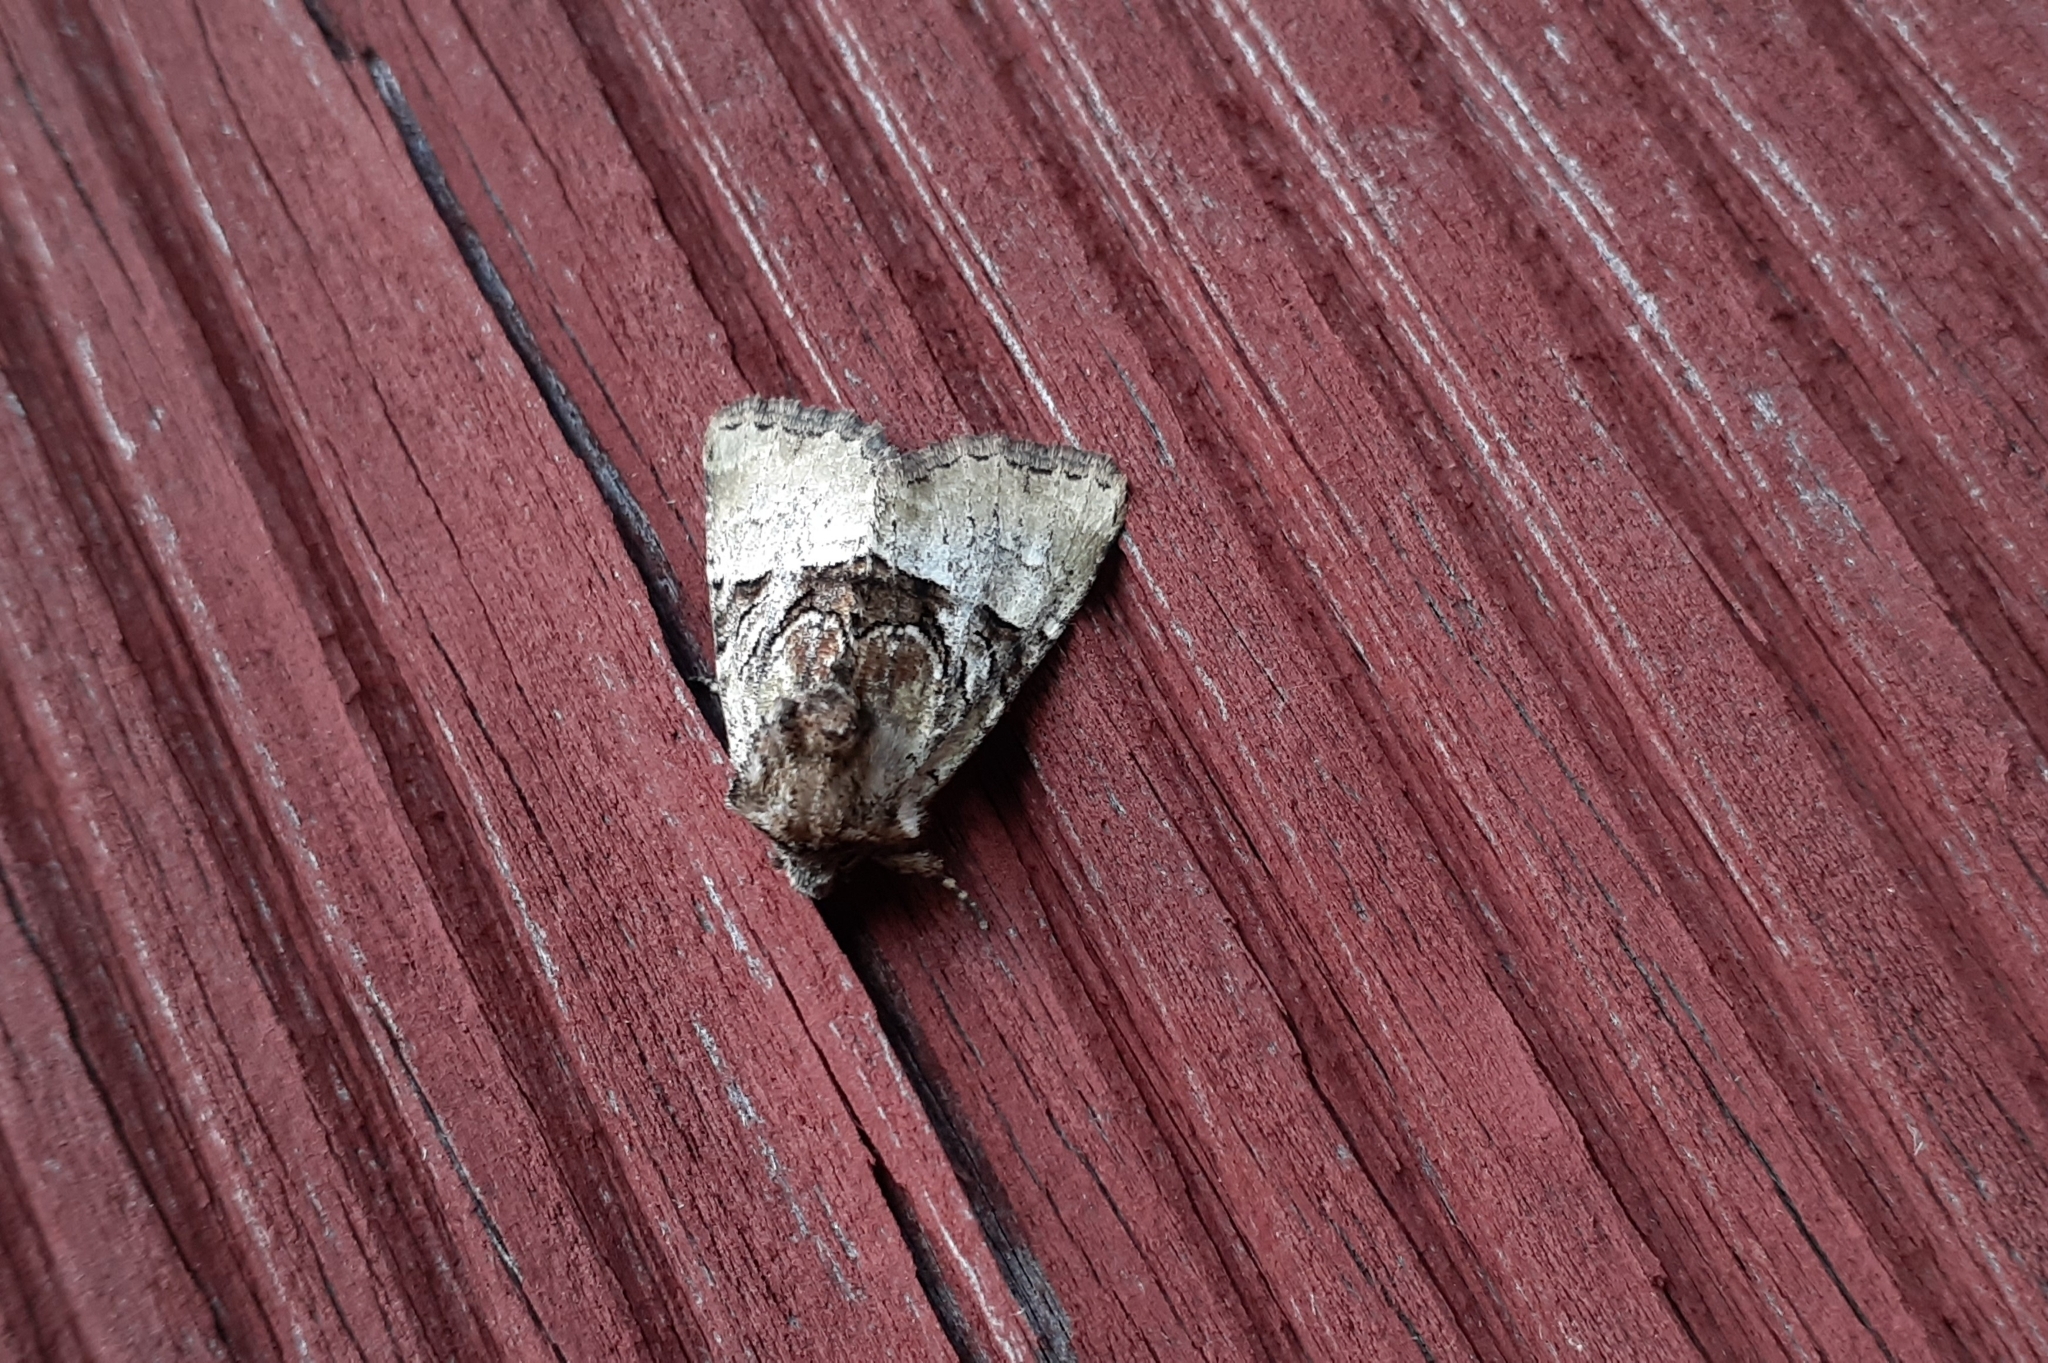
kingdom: Animalia
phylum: Arthropoda
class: Insecta
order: Lepidoptera
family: Noctuidae
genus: Meropleon
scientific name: Meropleon diversicolor
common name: Multicolored sedgeminer moth
